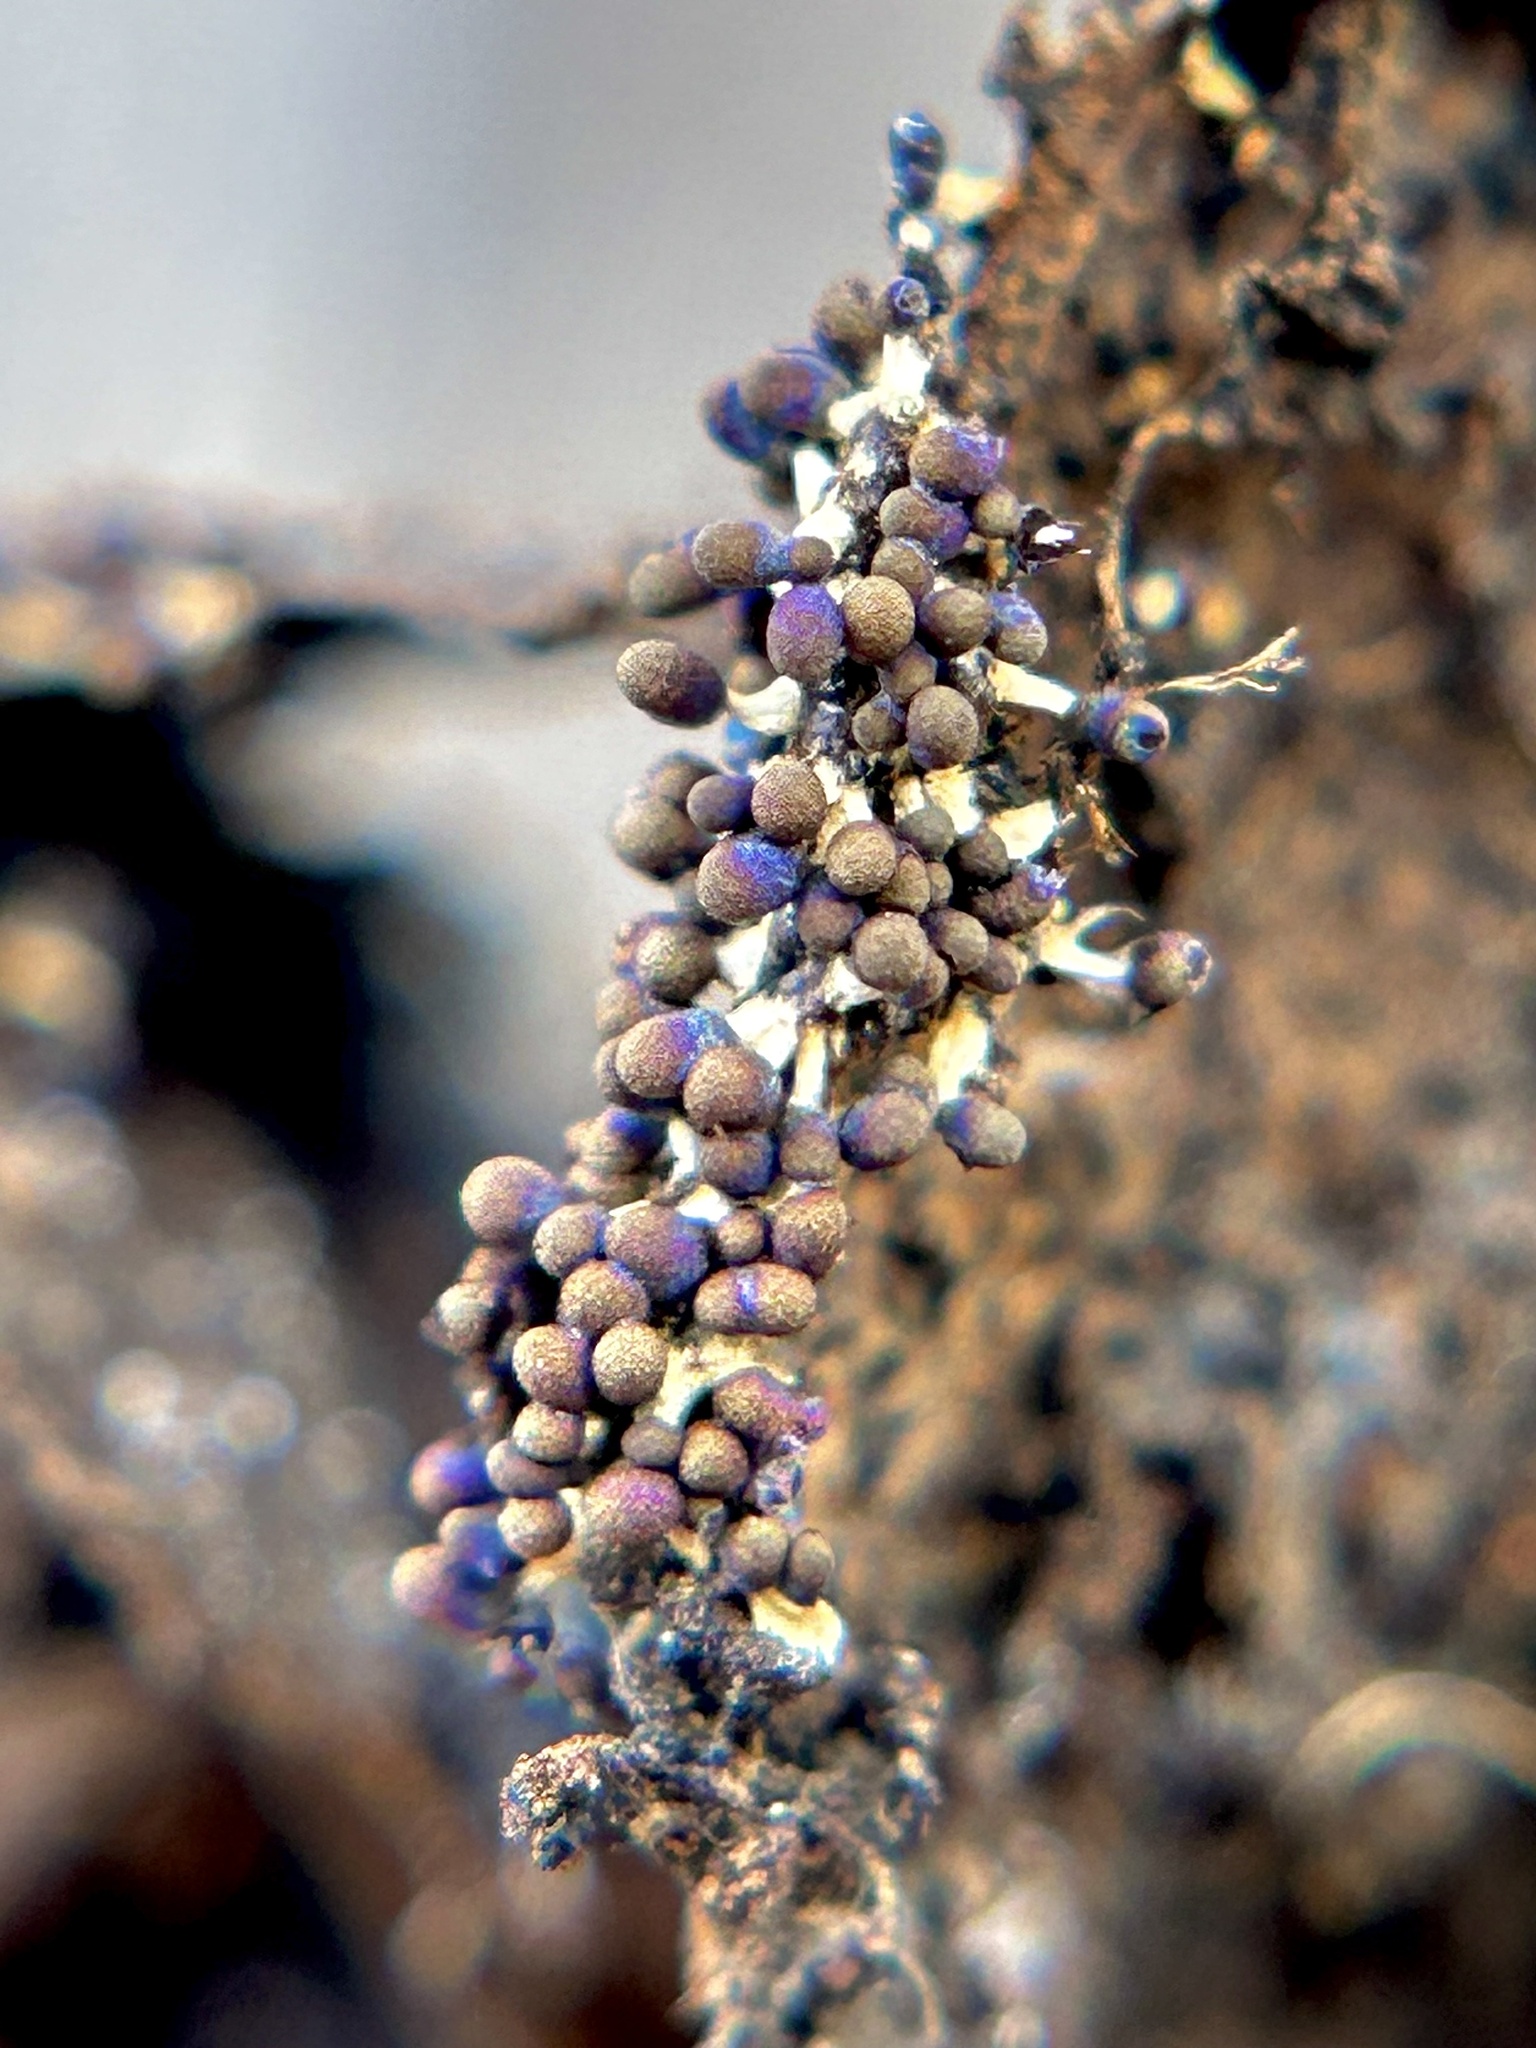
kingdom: Protozoa
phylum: Mycetozoa
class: Myxomycetes
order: Physarales
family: Didymiaceae
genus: Diachea
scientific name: Diachea leucopodia
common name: White-footed slime
